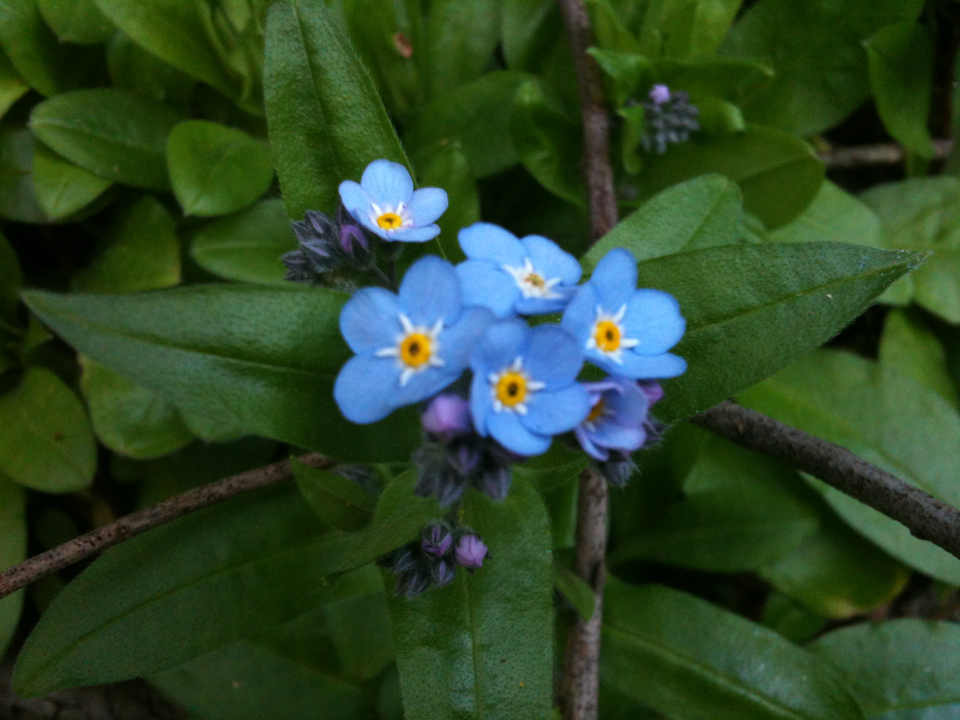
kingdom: Plantae
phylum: Tracheophyta
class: Magnoliopsida
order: Boraginales
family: Boraginaceae
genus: Myosotis
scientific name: Myosotis latifolia
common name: Broadleaf forget-me-not
